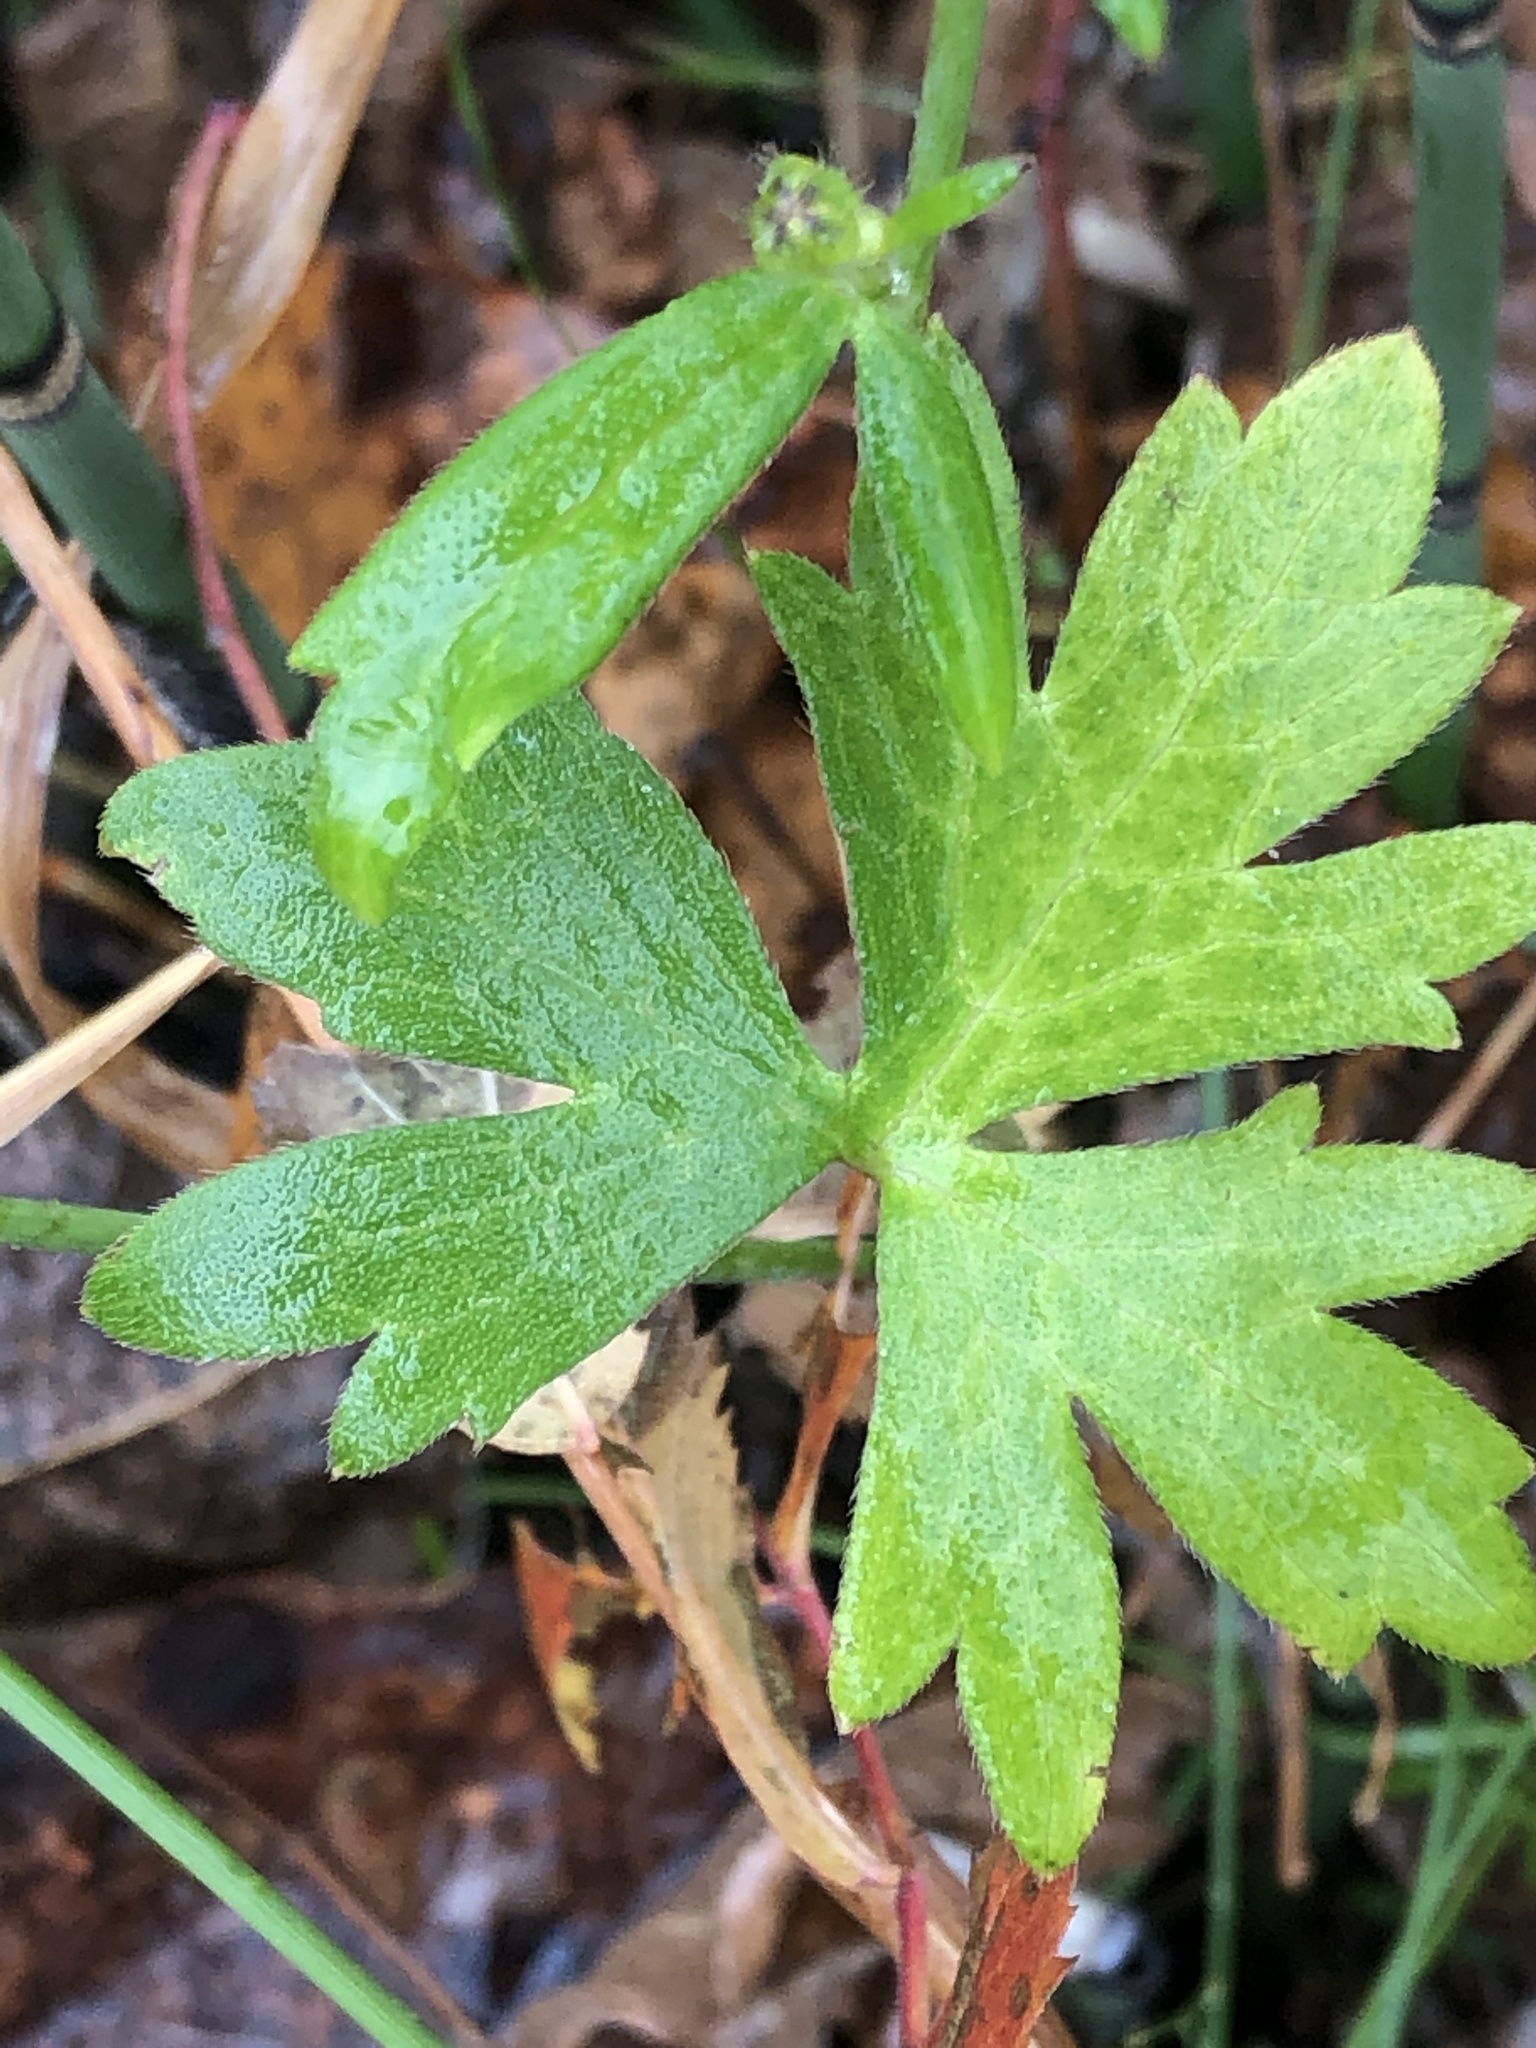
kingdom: Plantae
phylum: Tracheophyta
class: Magnoliopsida
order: Ranunculales
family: Ranunculaceae
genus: Ranunculus
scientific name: Ranunculus acris
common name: Meadow buttercup
